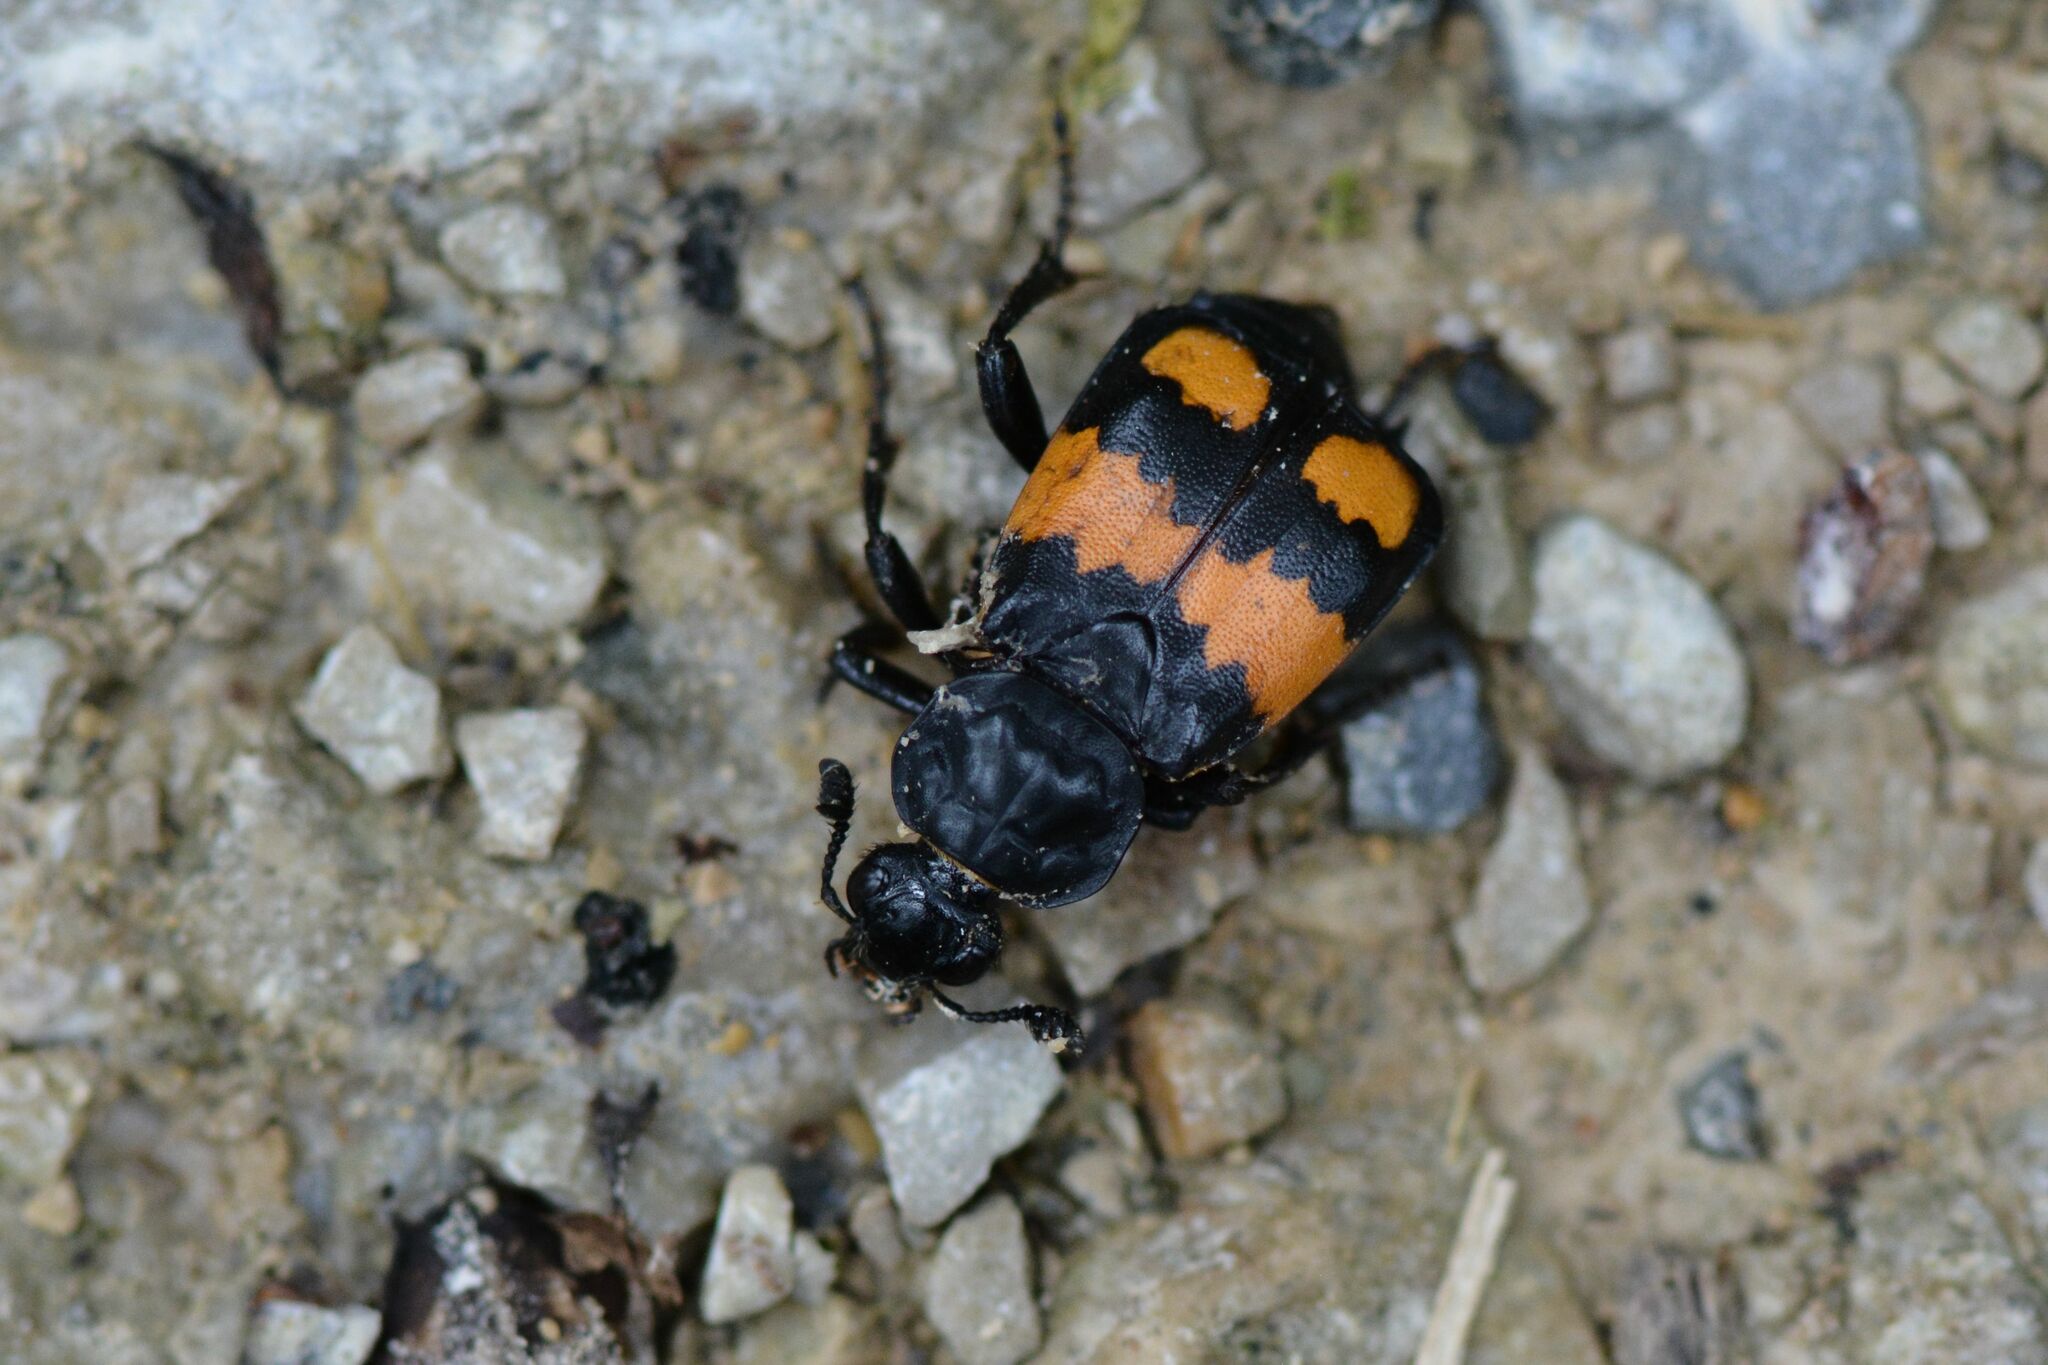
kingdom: Animalia
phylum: Arthropoda
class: Insecta
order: Coleoptera
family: Staphylinidae
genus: Nicrophorus
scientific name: Nicrophorus vespilloides
